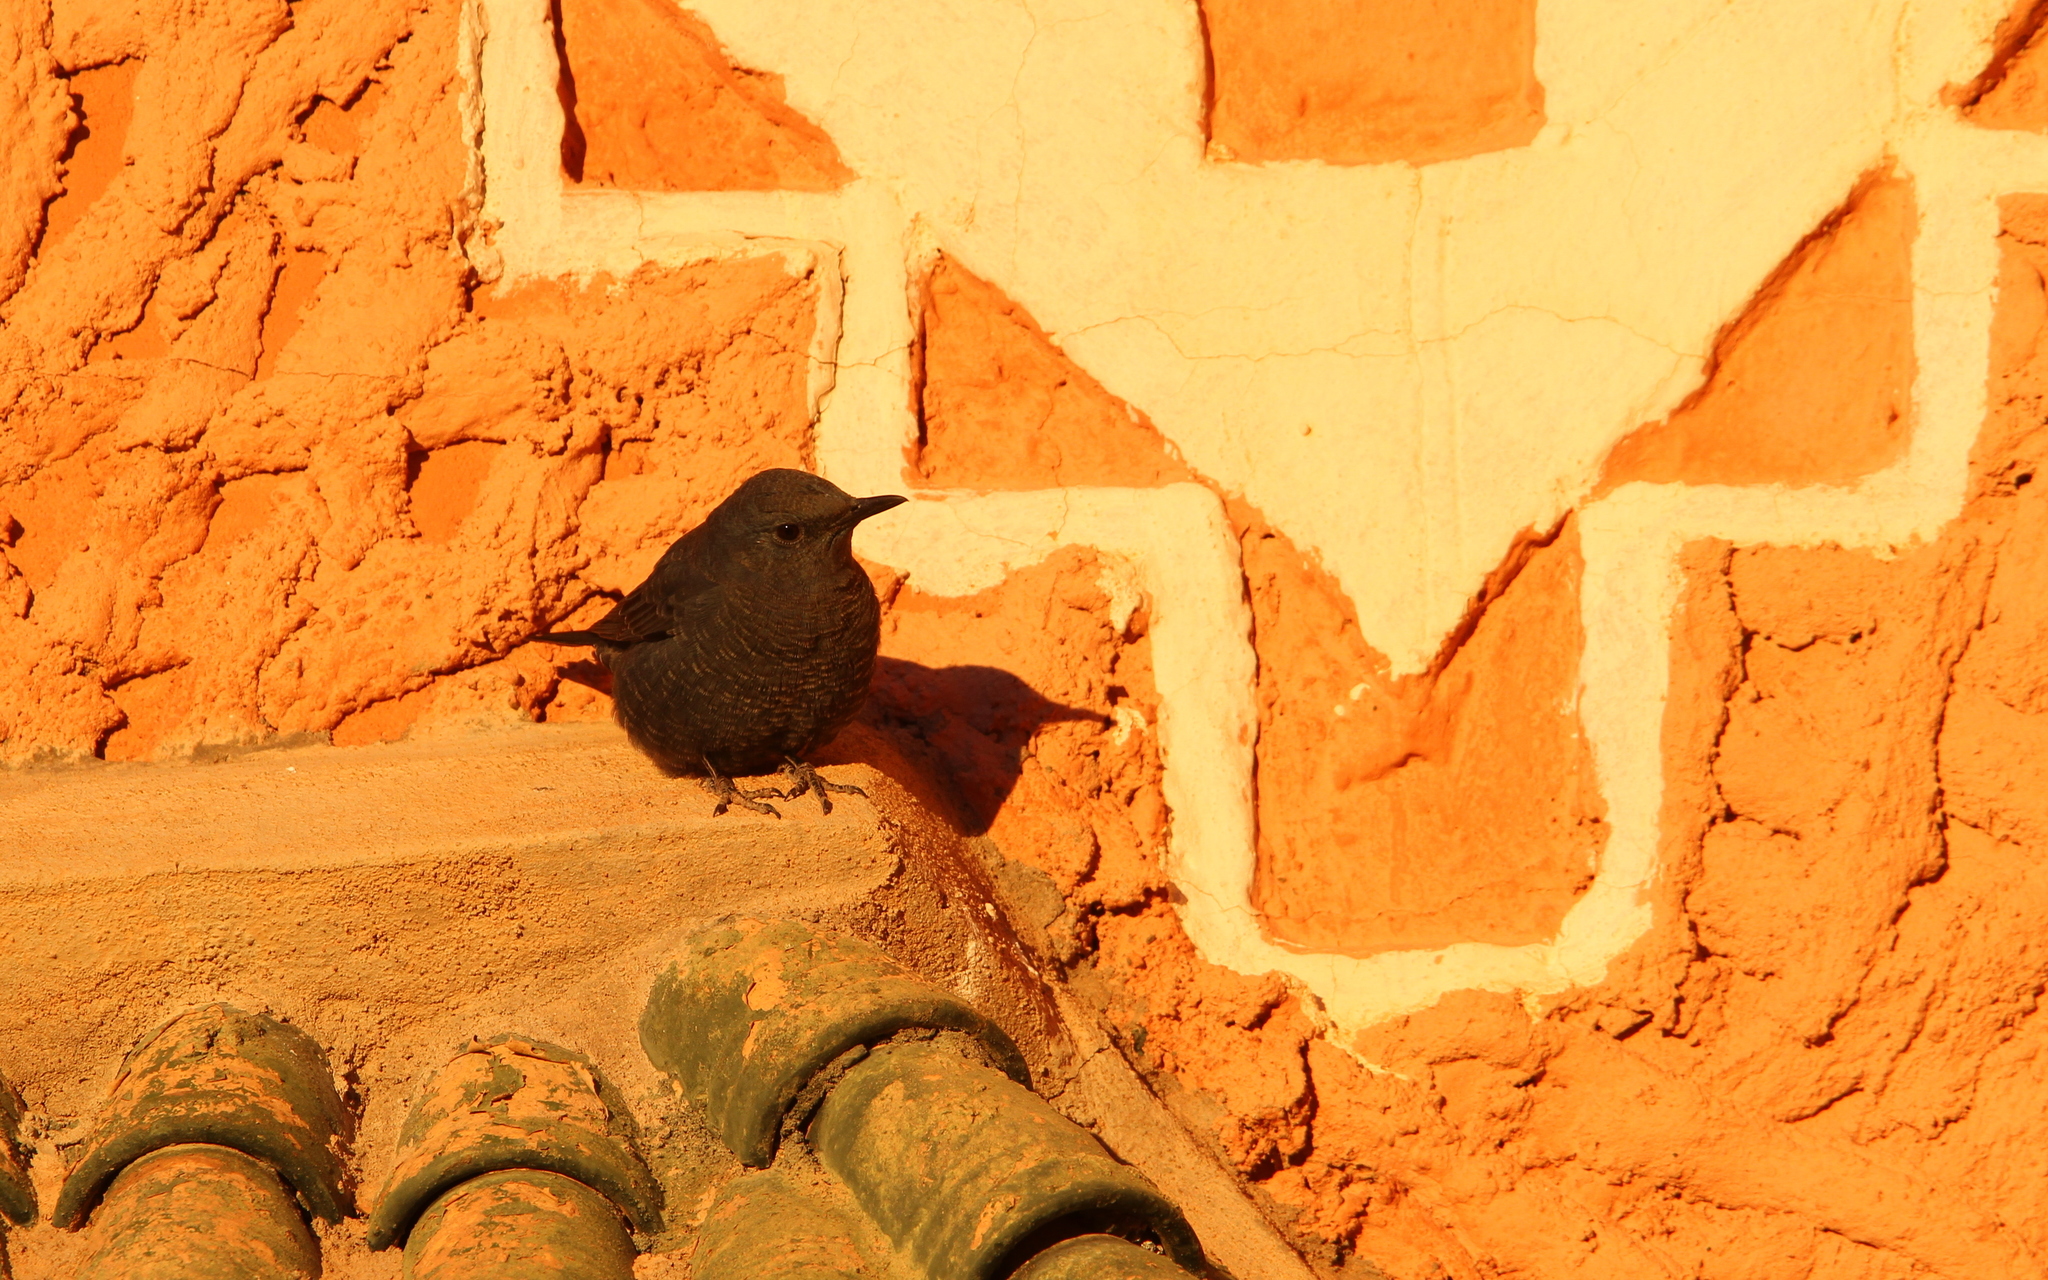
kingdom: Animalia
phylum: Chordata
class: Aves
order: Passeriformes
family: Muscicapidae
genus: Monticola
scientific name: Monticola solitarius
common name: Blue rock thrush
